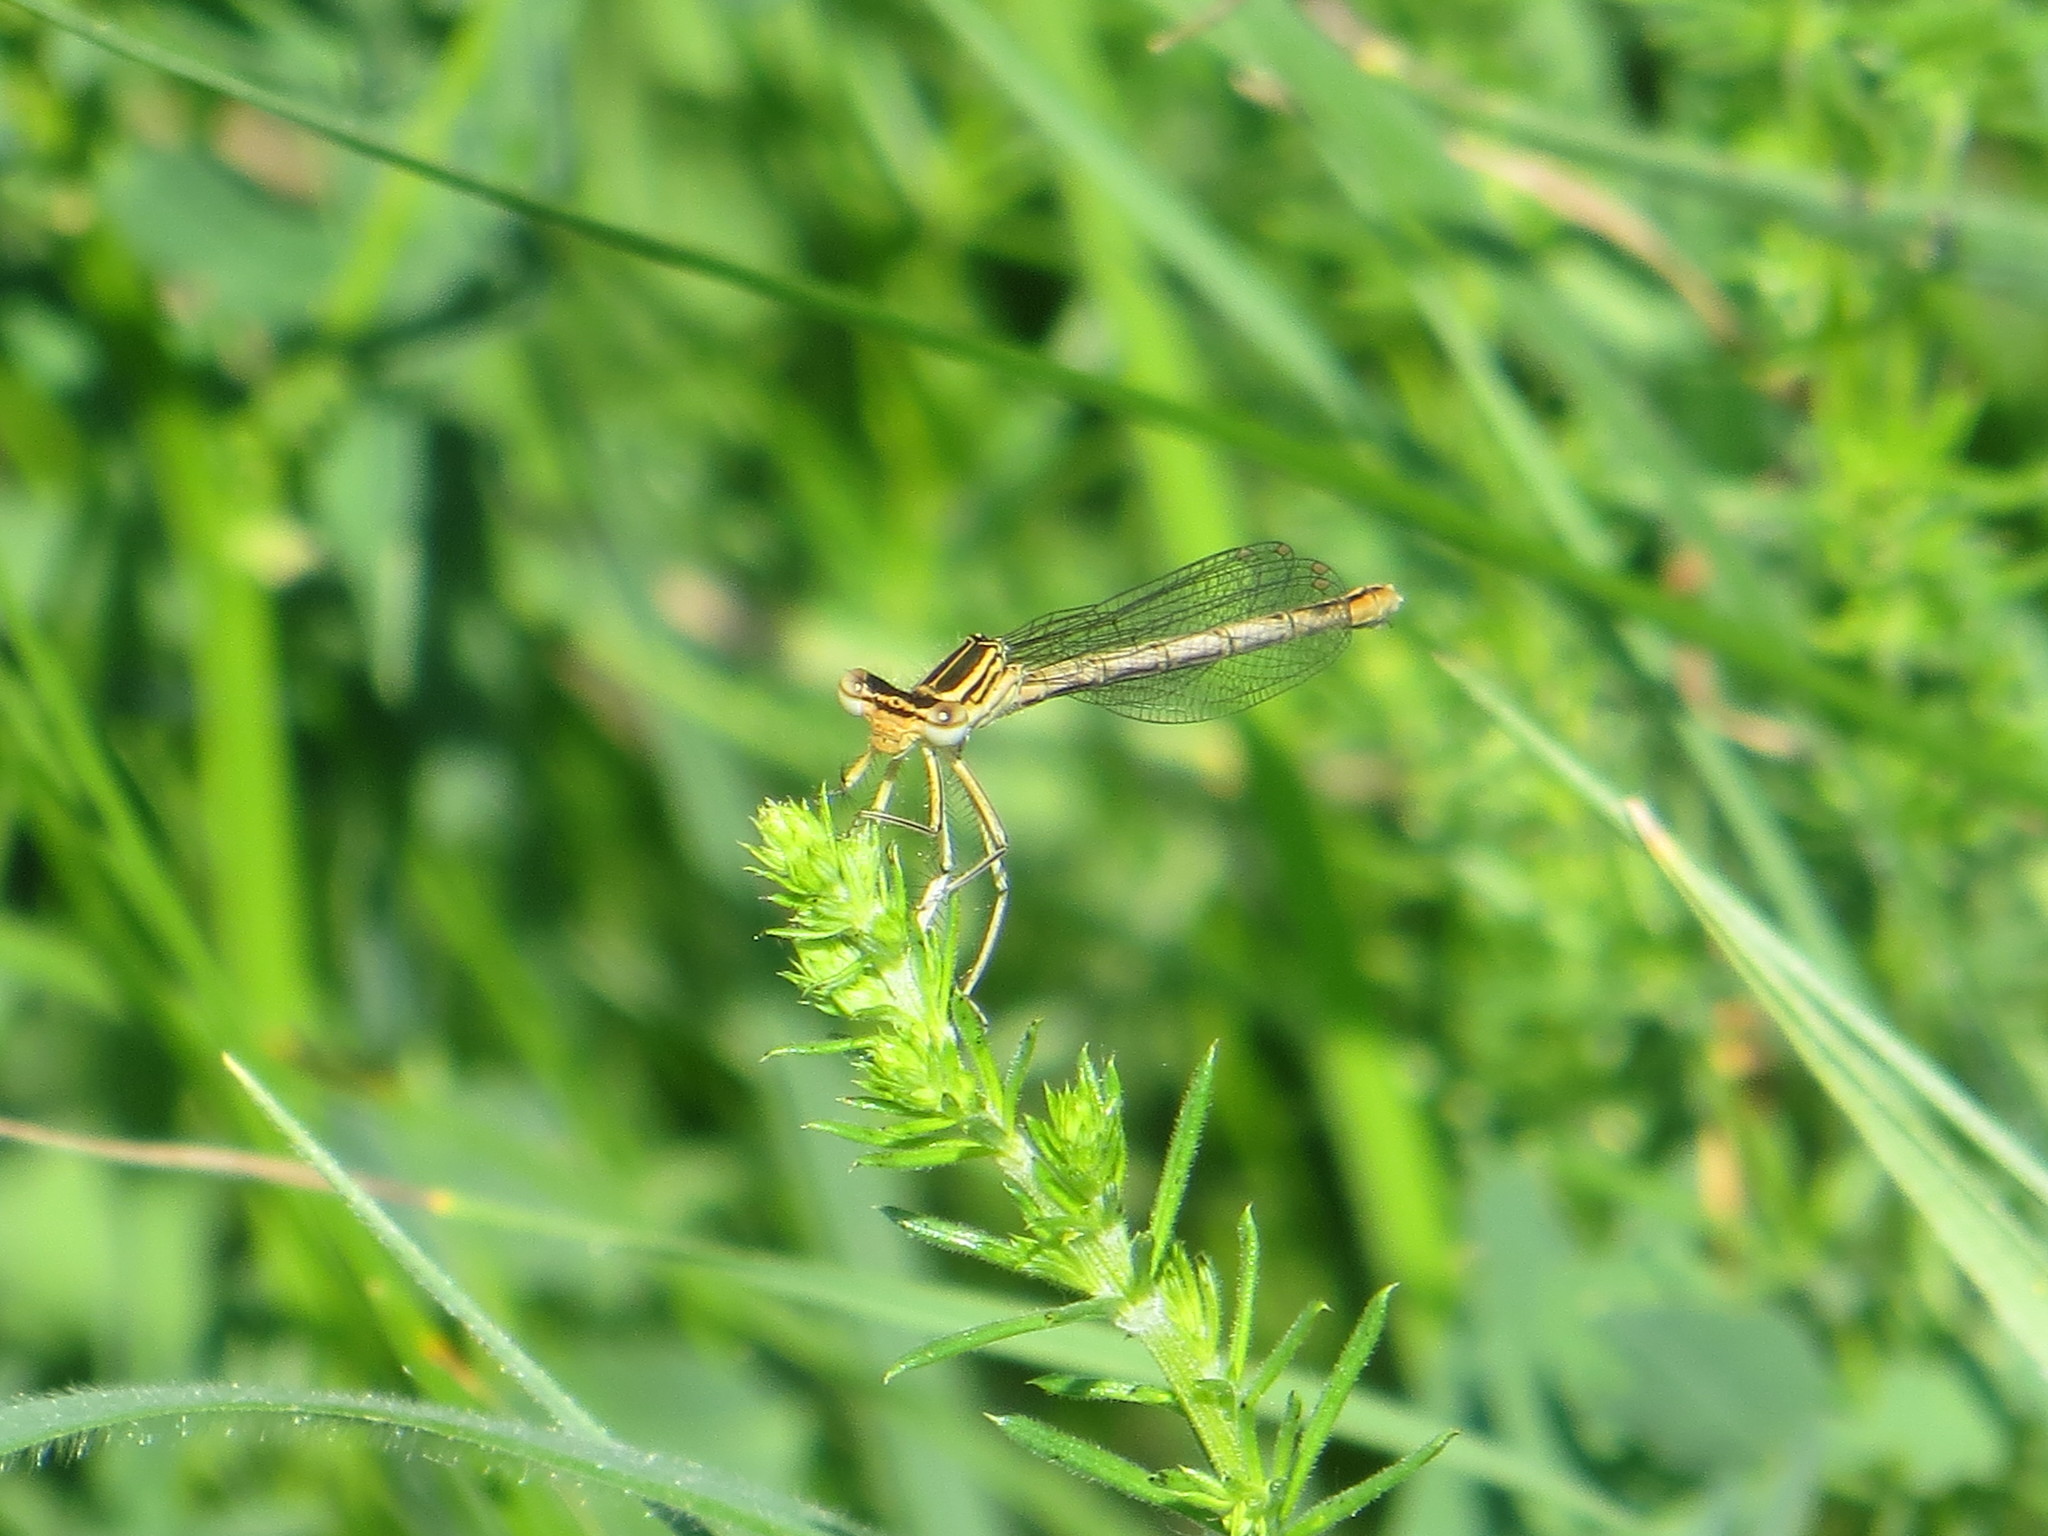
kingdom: Animalia
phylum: Arthropoda
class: Insecta
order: Odonata
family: Platycnemididae
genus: Platycnemis
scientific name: Platycnemis pennipes
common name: White-legged damselfly
